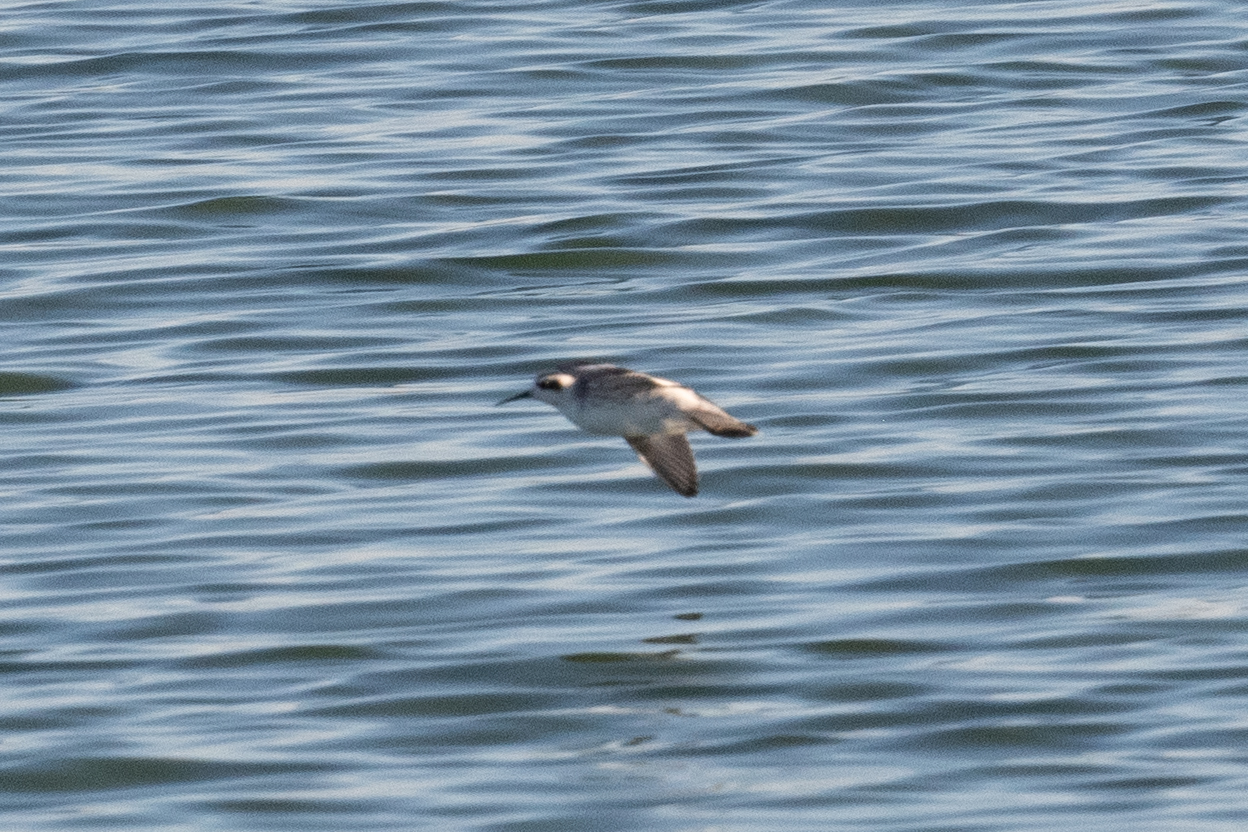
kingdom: Animalia
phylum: Chordata
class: Aves
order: Charadriiformes
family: Scolopacidae
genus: Phalaropus
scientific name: Phalaropus lobatus
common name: Red-necked phalarope
